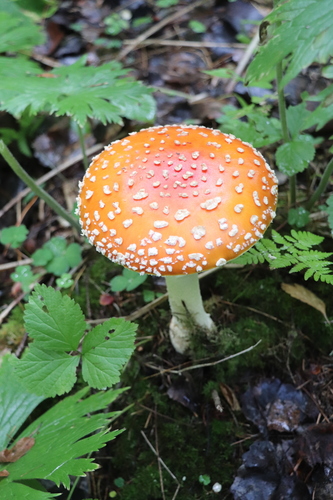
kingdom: Fungi
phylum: Basidiomycota
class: Agaricomycetes
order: Agaricales
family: Amanitaceae
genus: Amanita
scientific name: Amanita muscaria
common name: Fly agaric
